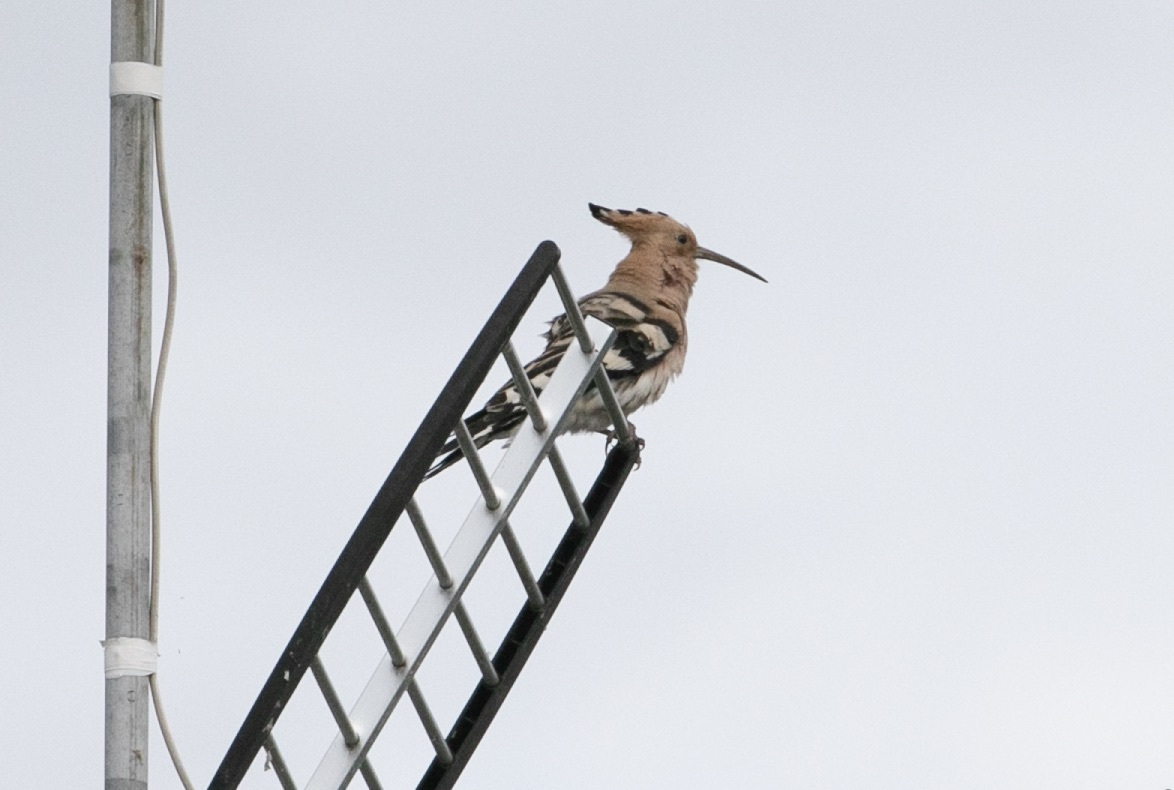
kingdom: Animalia
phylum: Chordata
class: Aves
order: Bucerotiformes
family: Upupidae
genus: Upupa
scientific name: Upupa epops
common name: Eurasian hoopoe
